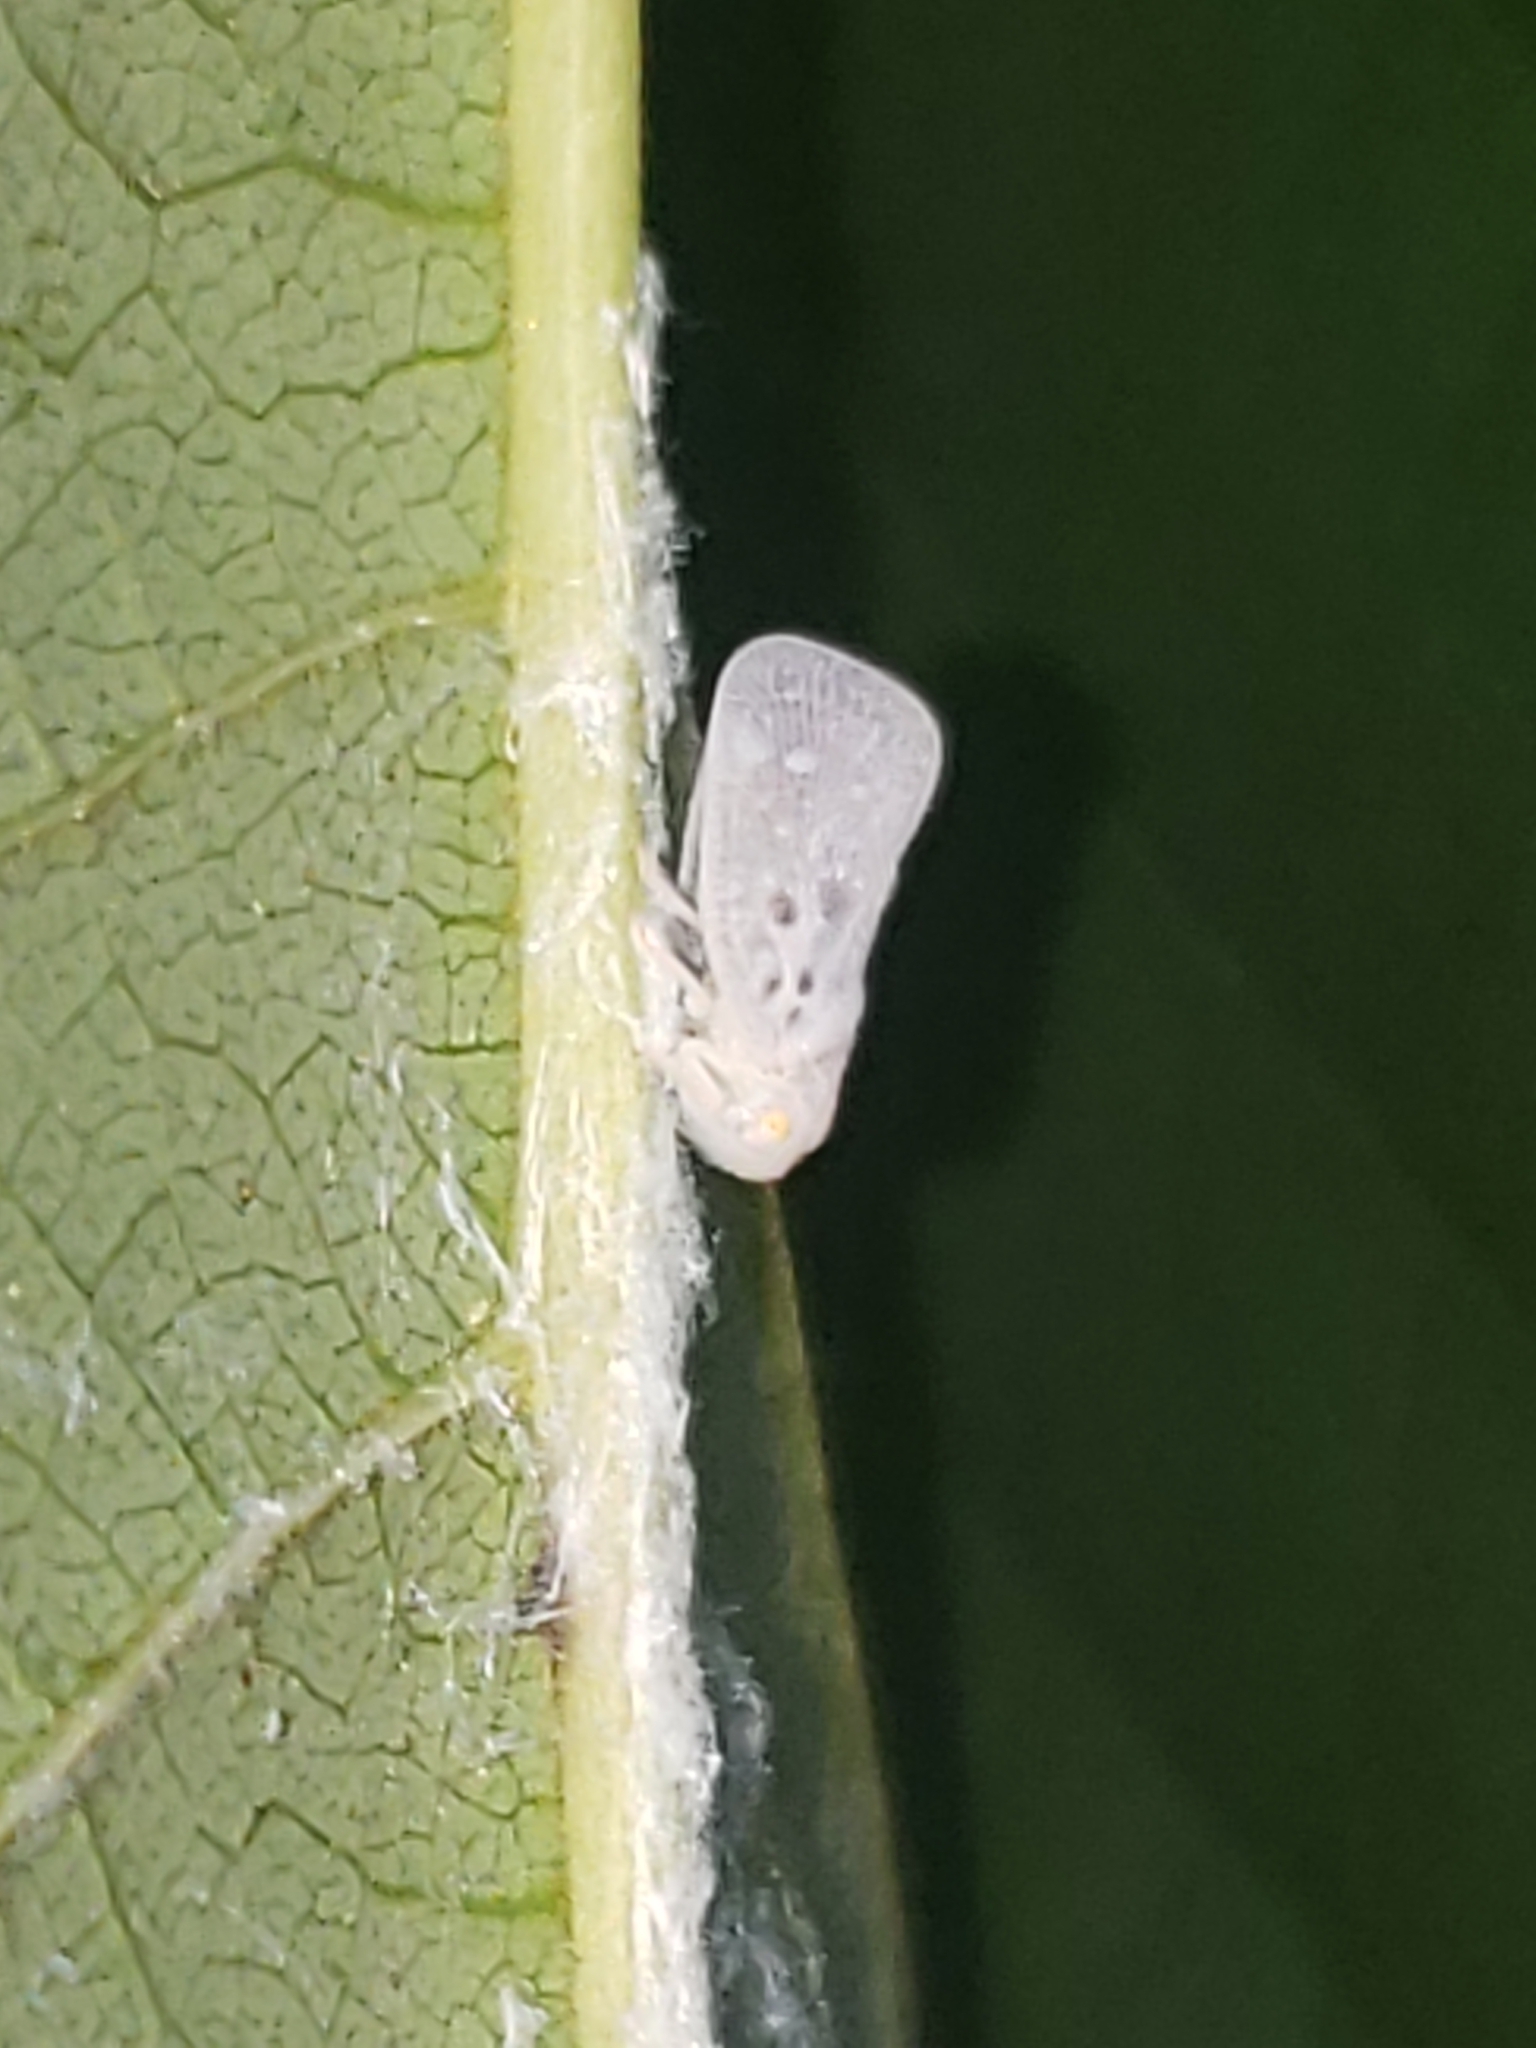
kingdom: Animalia
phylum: Arthropoda
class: Insecta
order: Hemiptera
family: Flatidae
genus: Metcalfa
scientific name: Metcalfa pruinosa
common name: Citrus flatid planthopper
